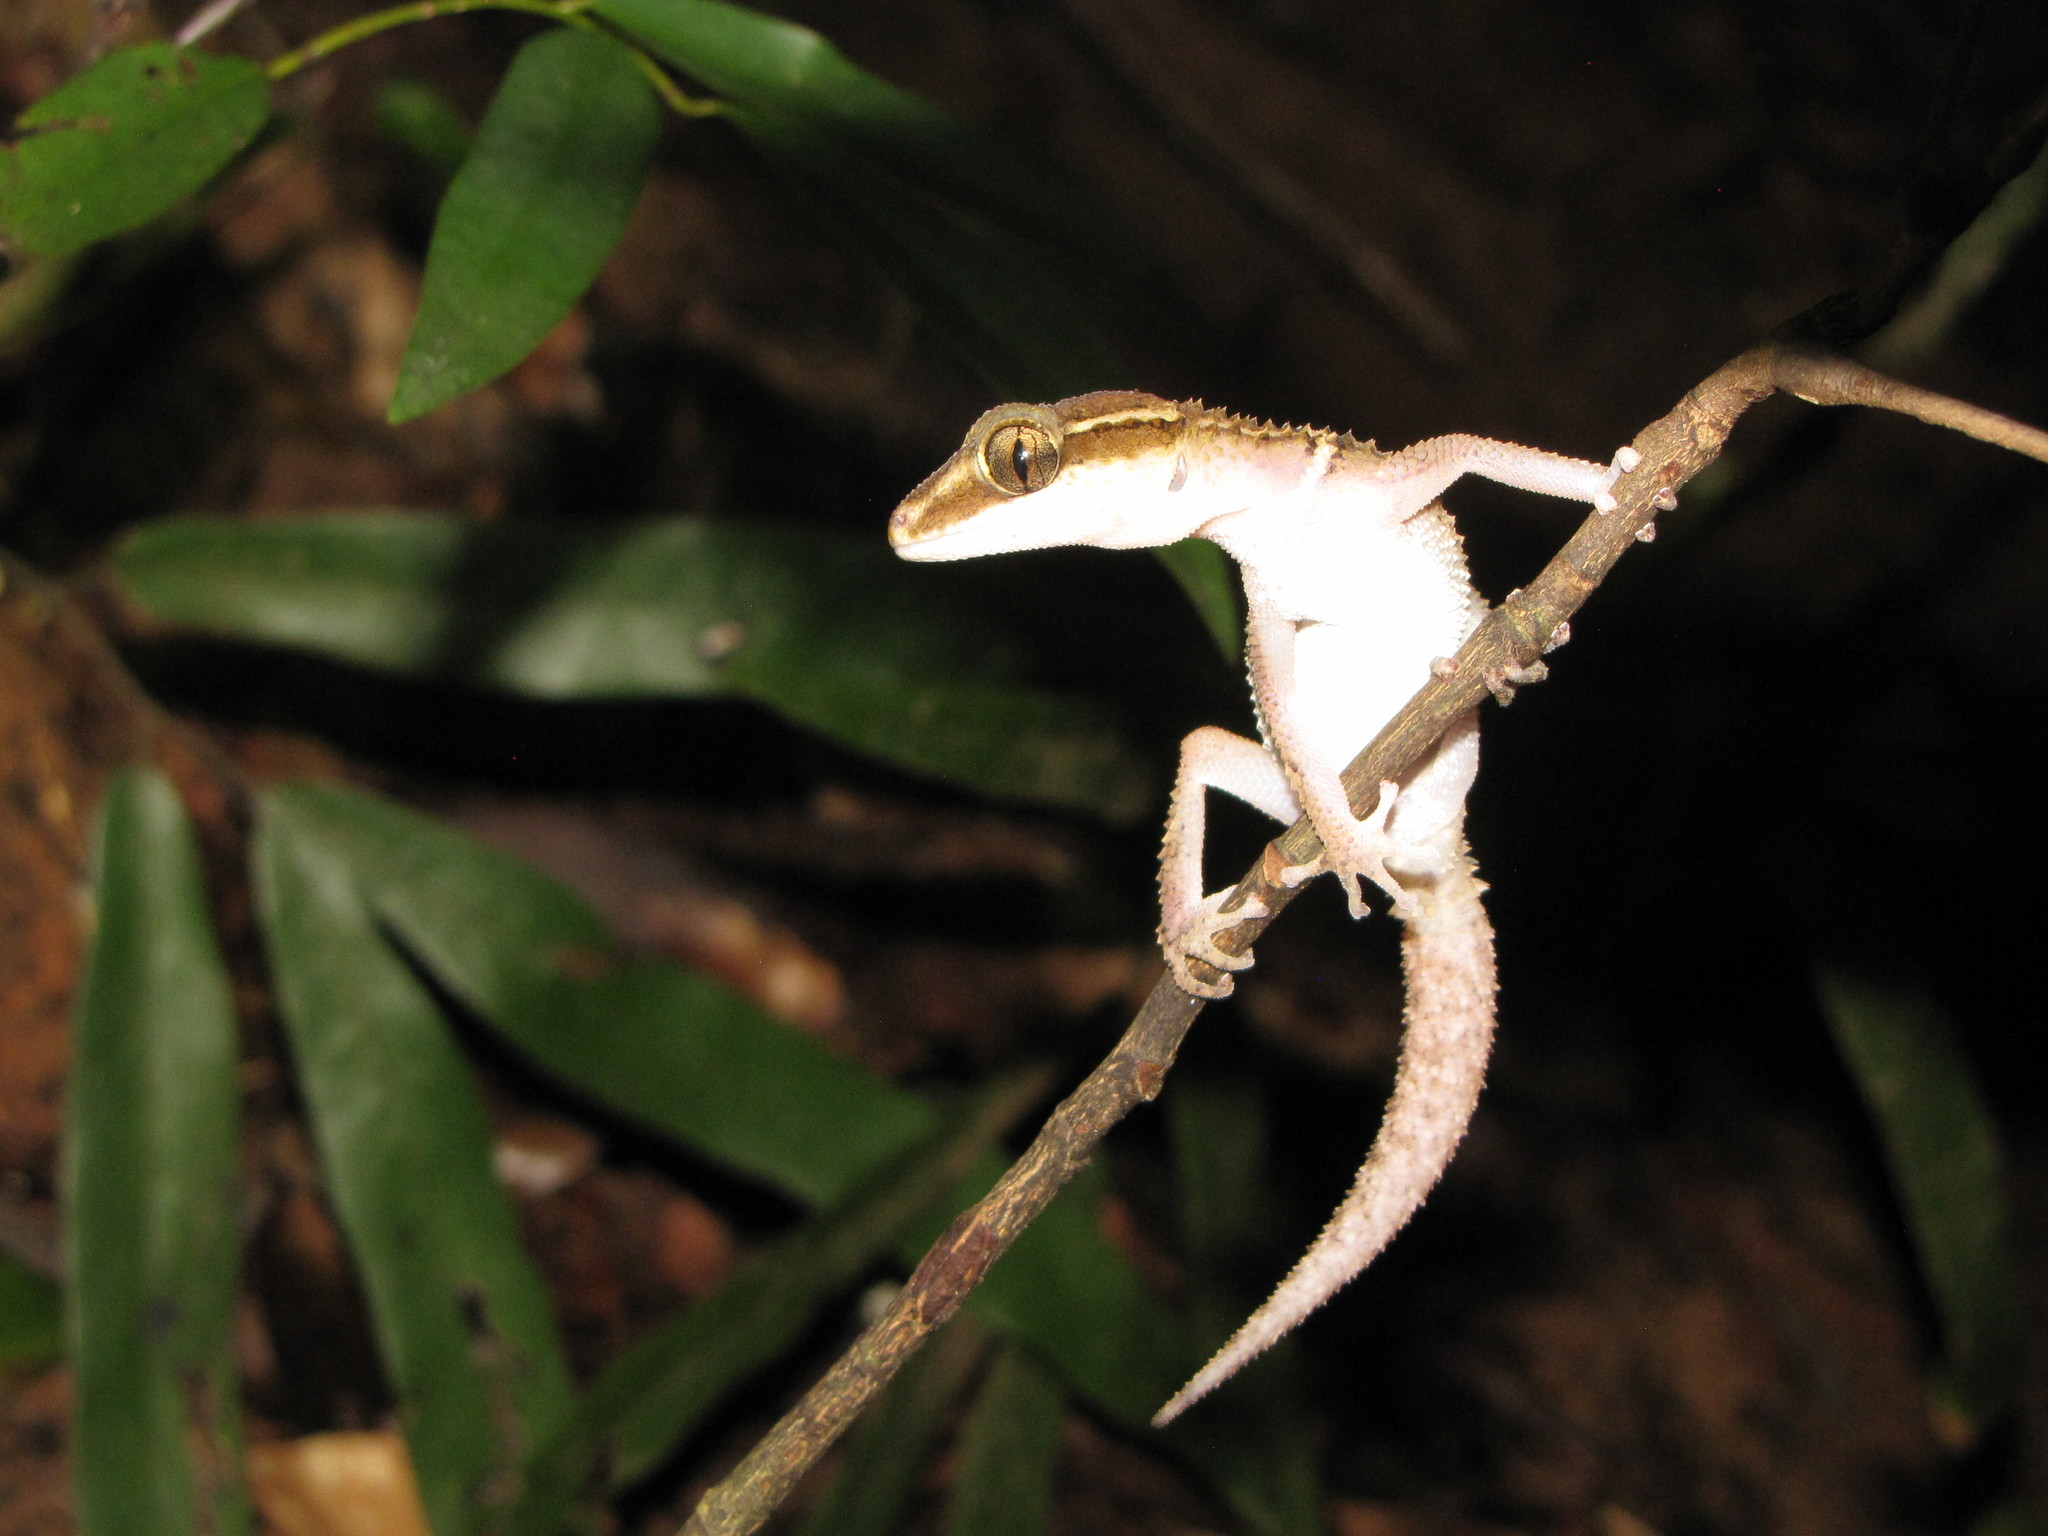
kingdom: Animalia
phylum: Chordata
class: Squamata
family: Gekkonidae
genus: Paroedura
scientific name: Paroedura stumpffi
